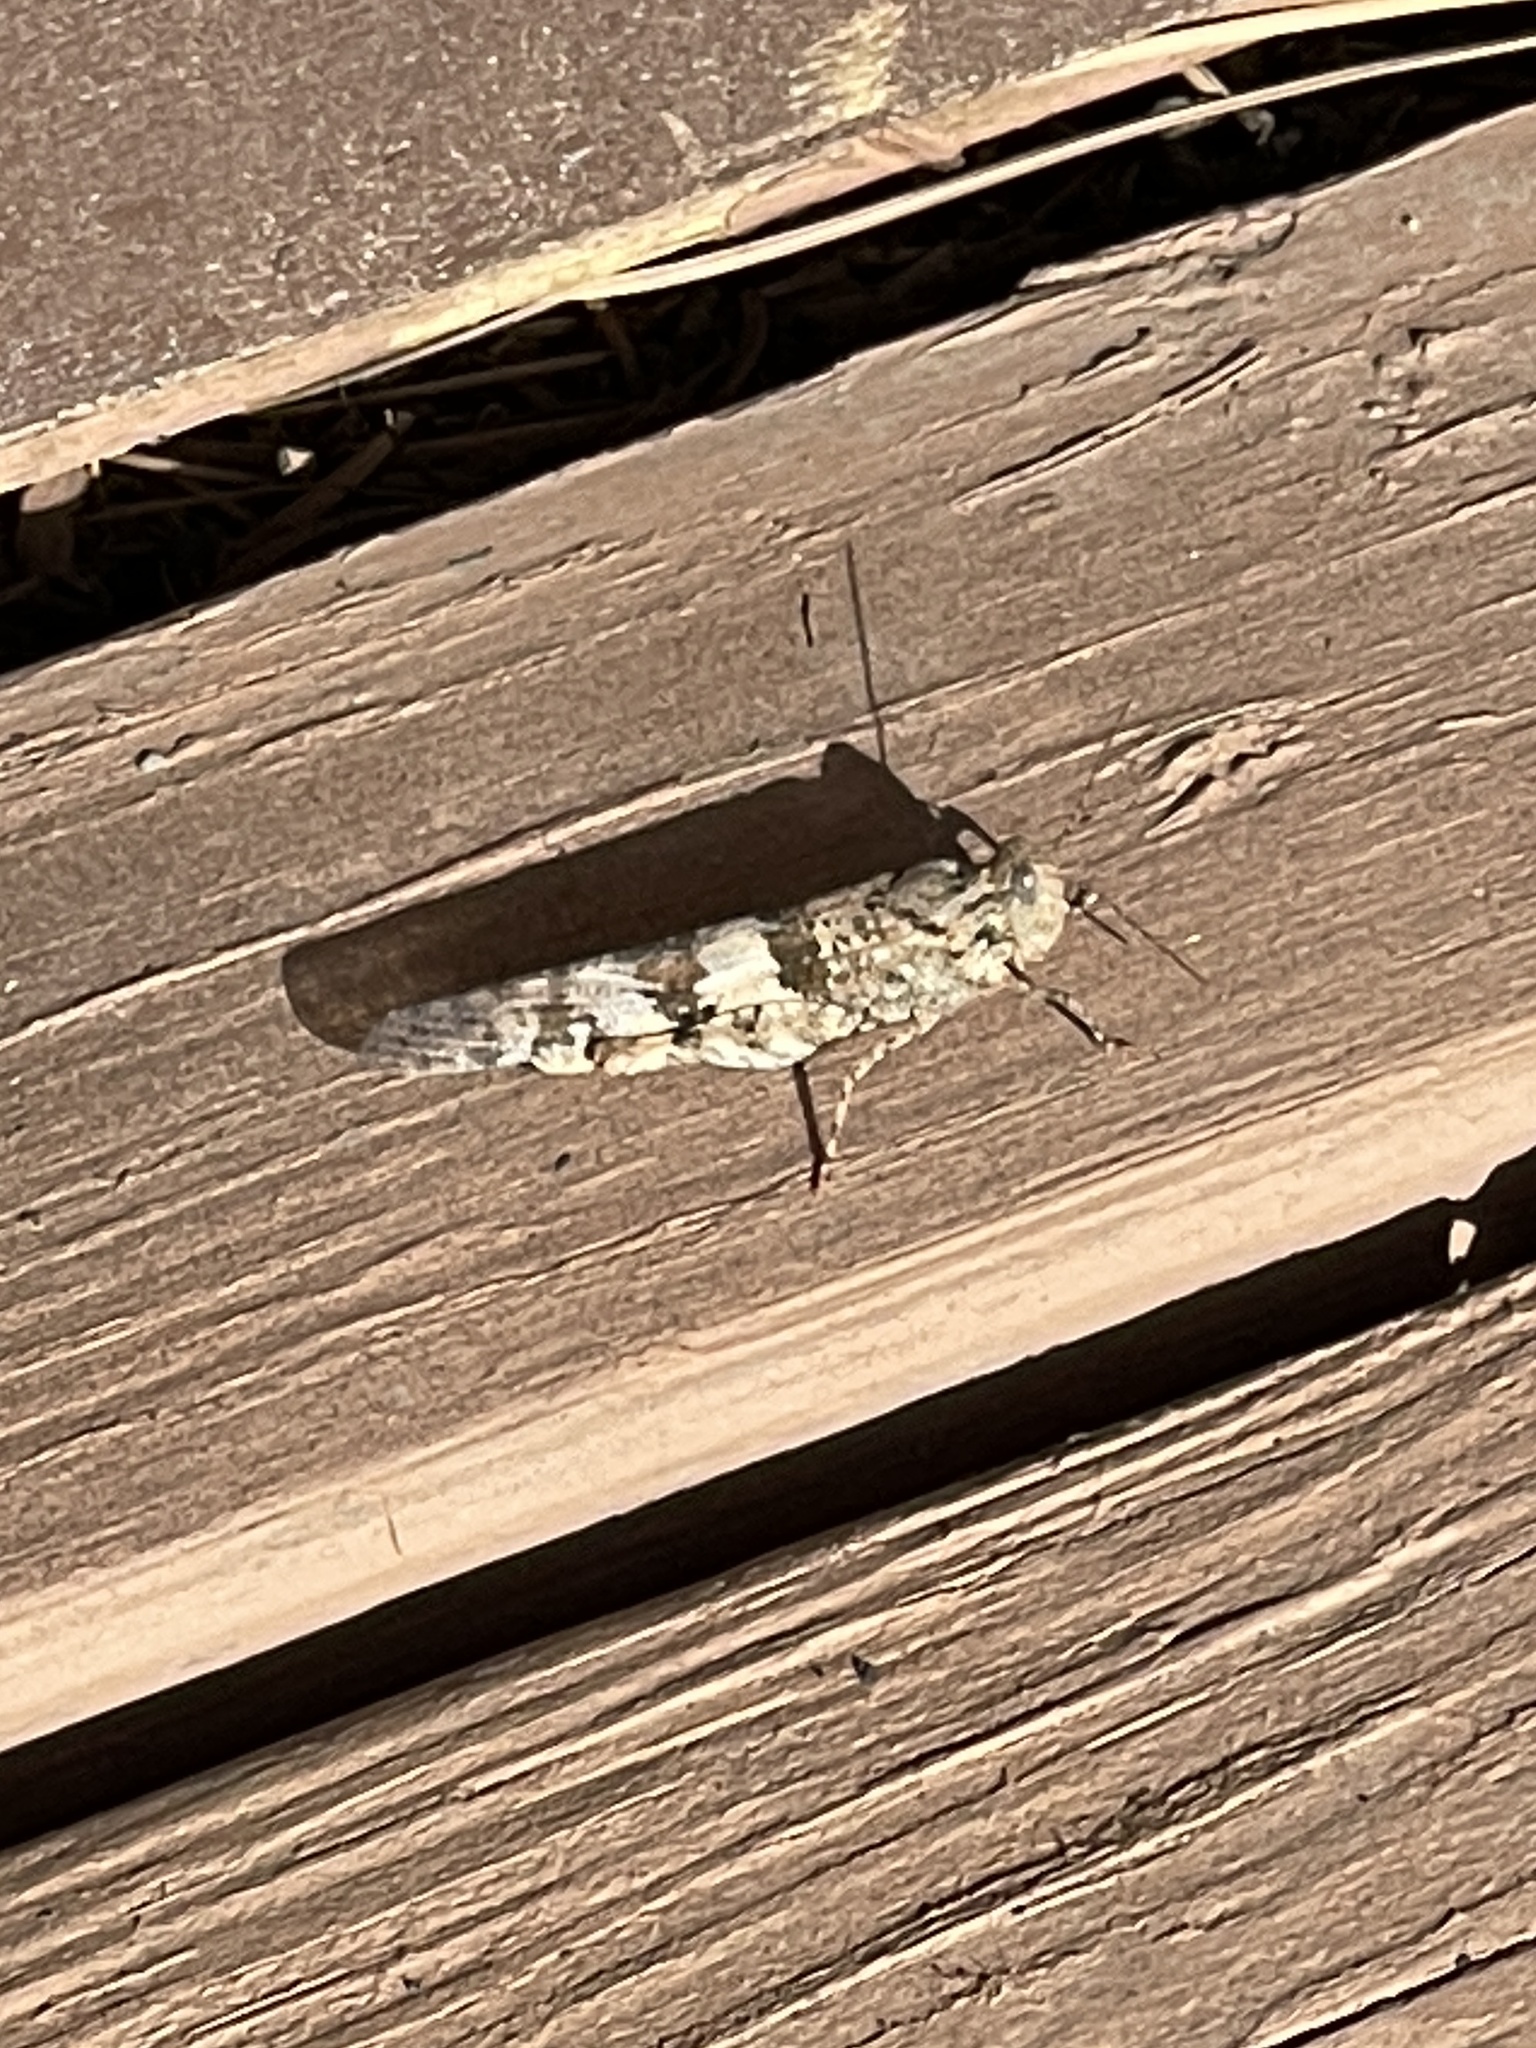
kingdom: Animalia
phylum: Arthropoda
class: Insecta
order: Orthoptera
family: Acrididae
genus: Trimerotropis
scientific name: Trimerotropis pallidipennis
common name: Pallid-winged grasshopper
